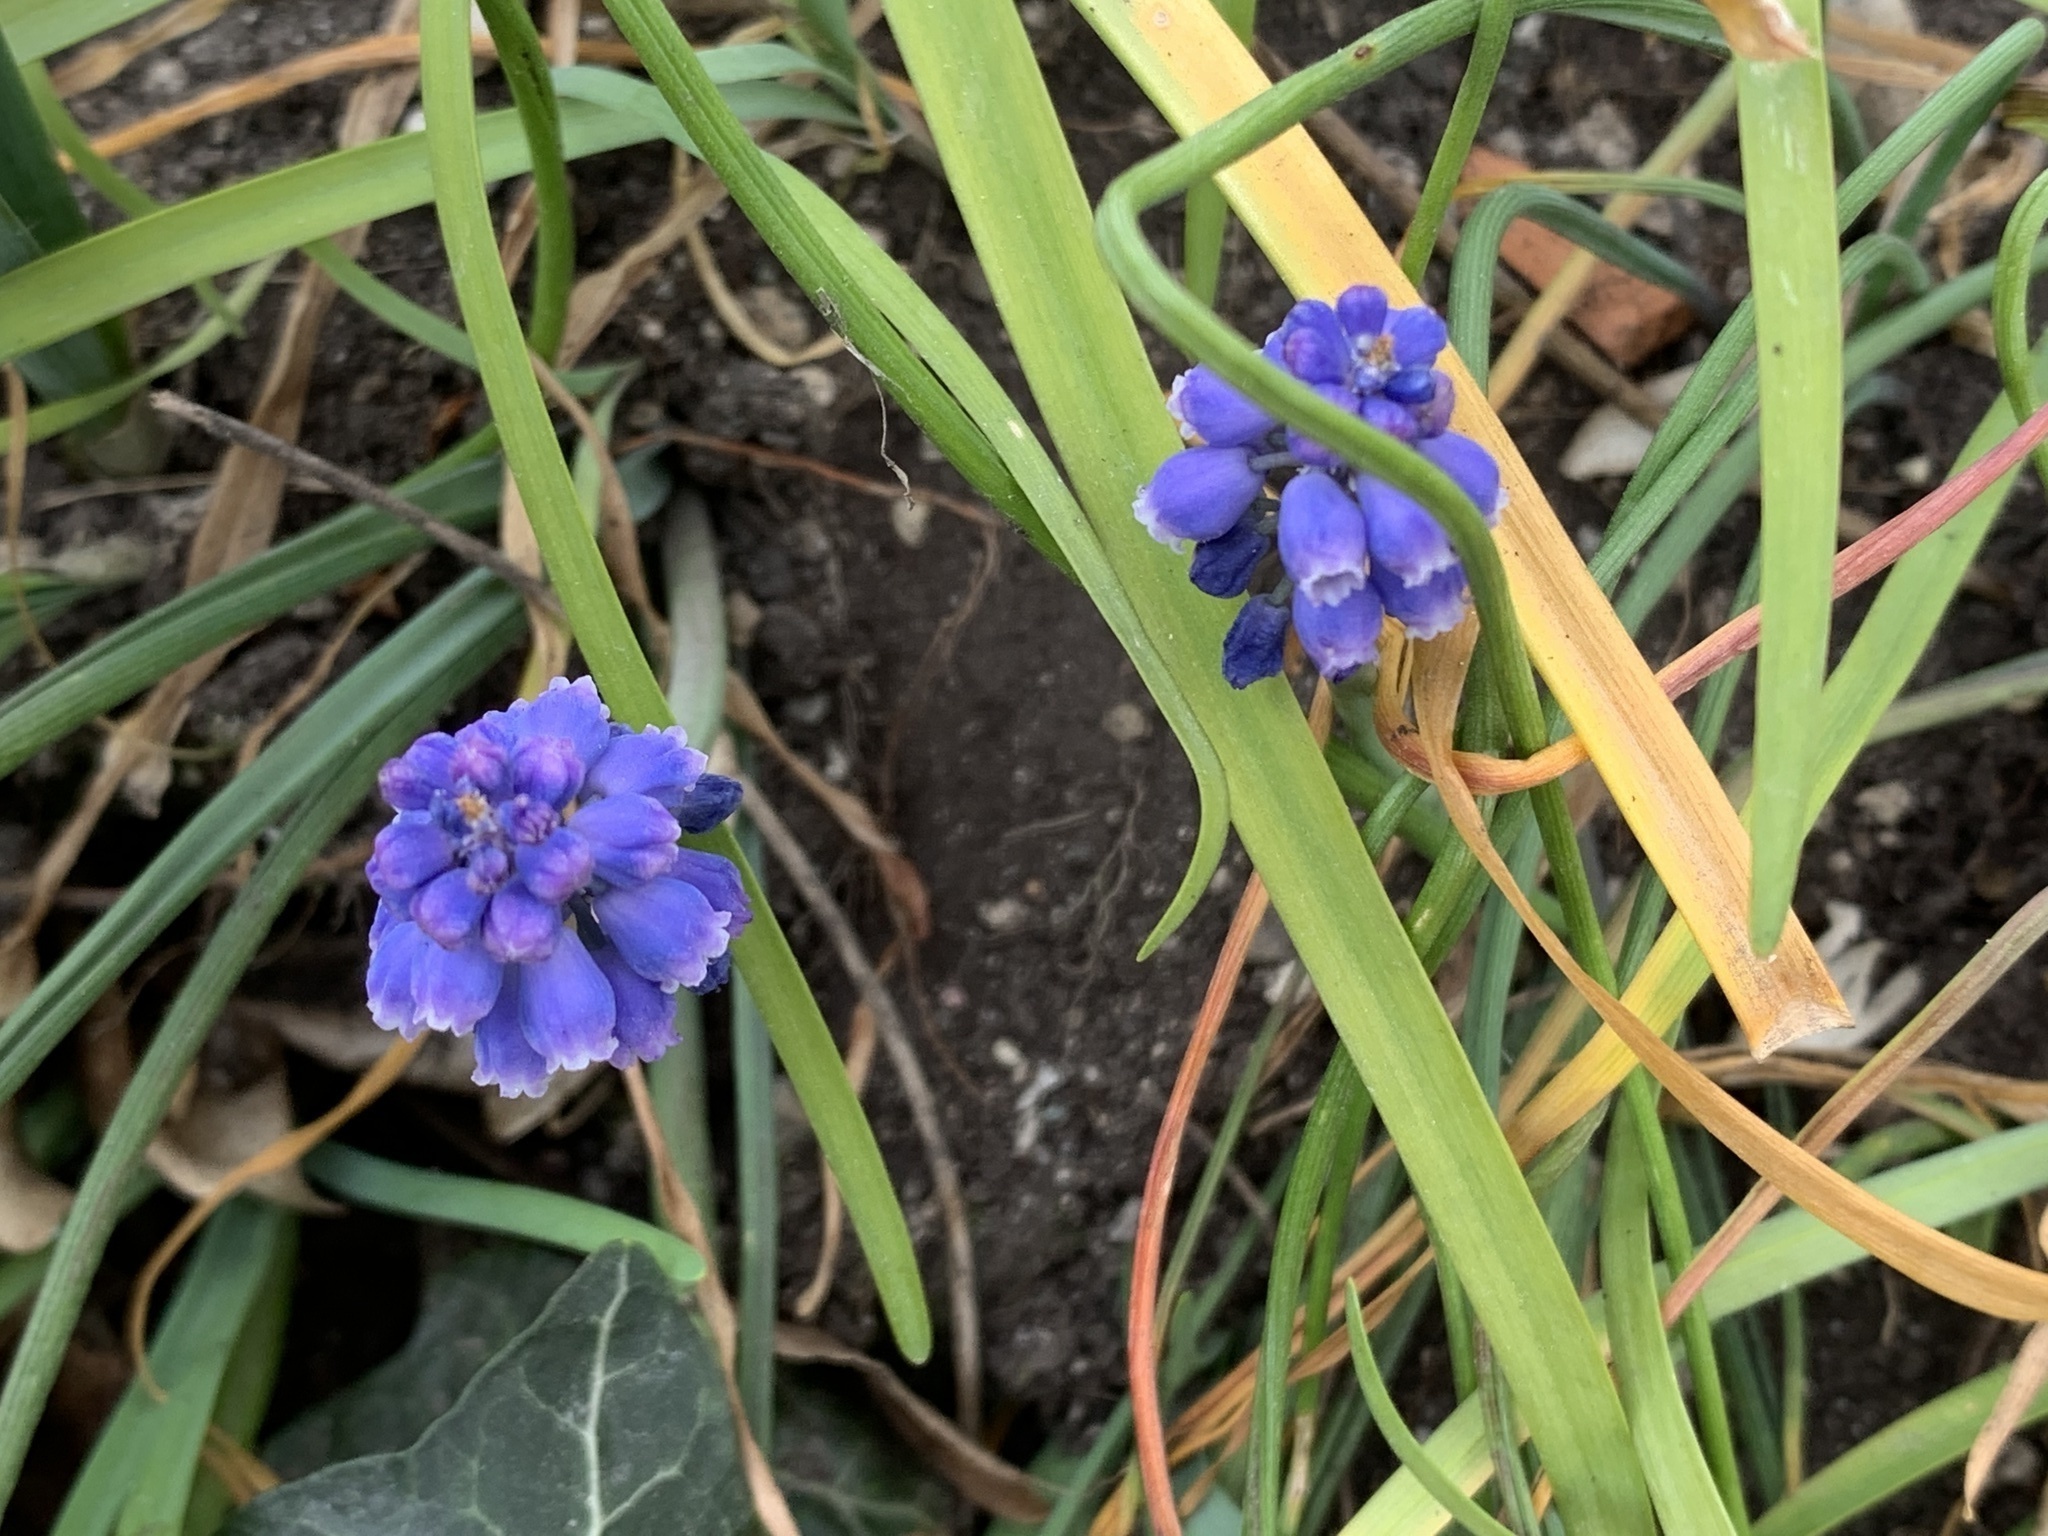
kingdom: Plantae
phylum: Tracheophyta
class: Liliopsida
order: Asparagales
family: Asparagaceae
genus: Muscari
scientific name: Muscari armeniacum
